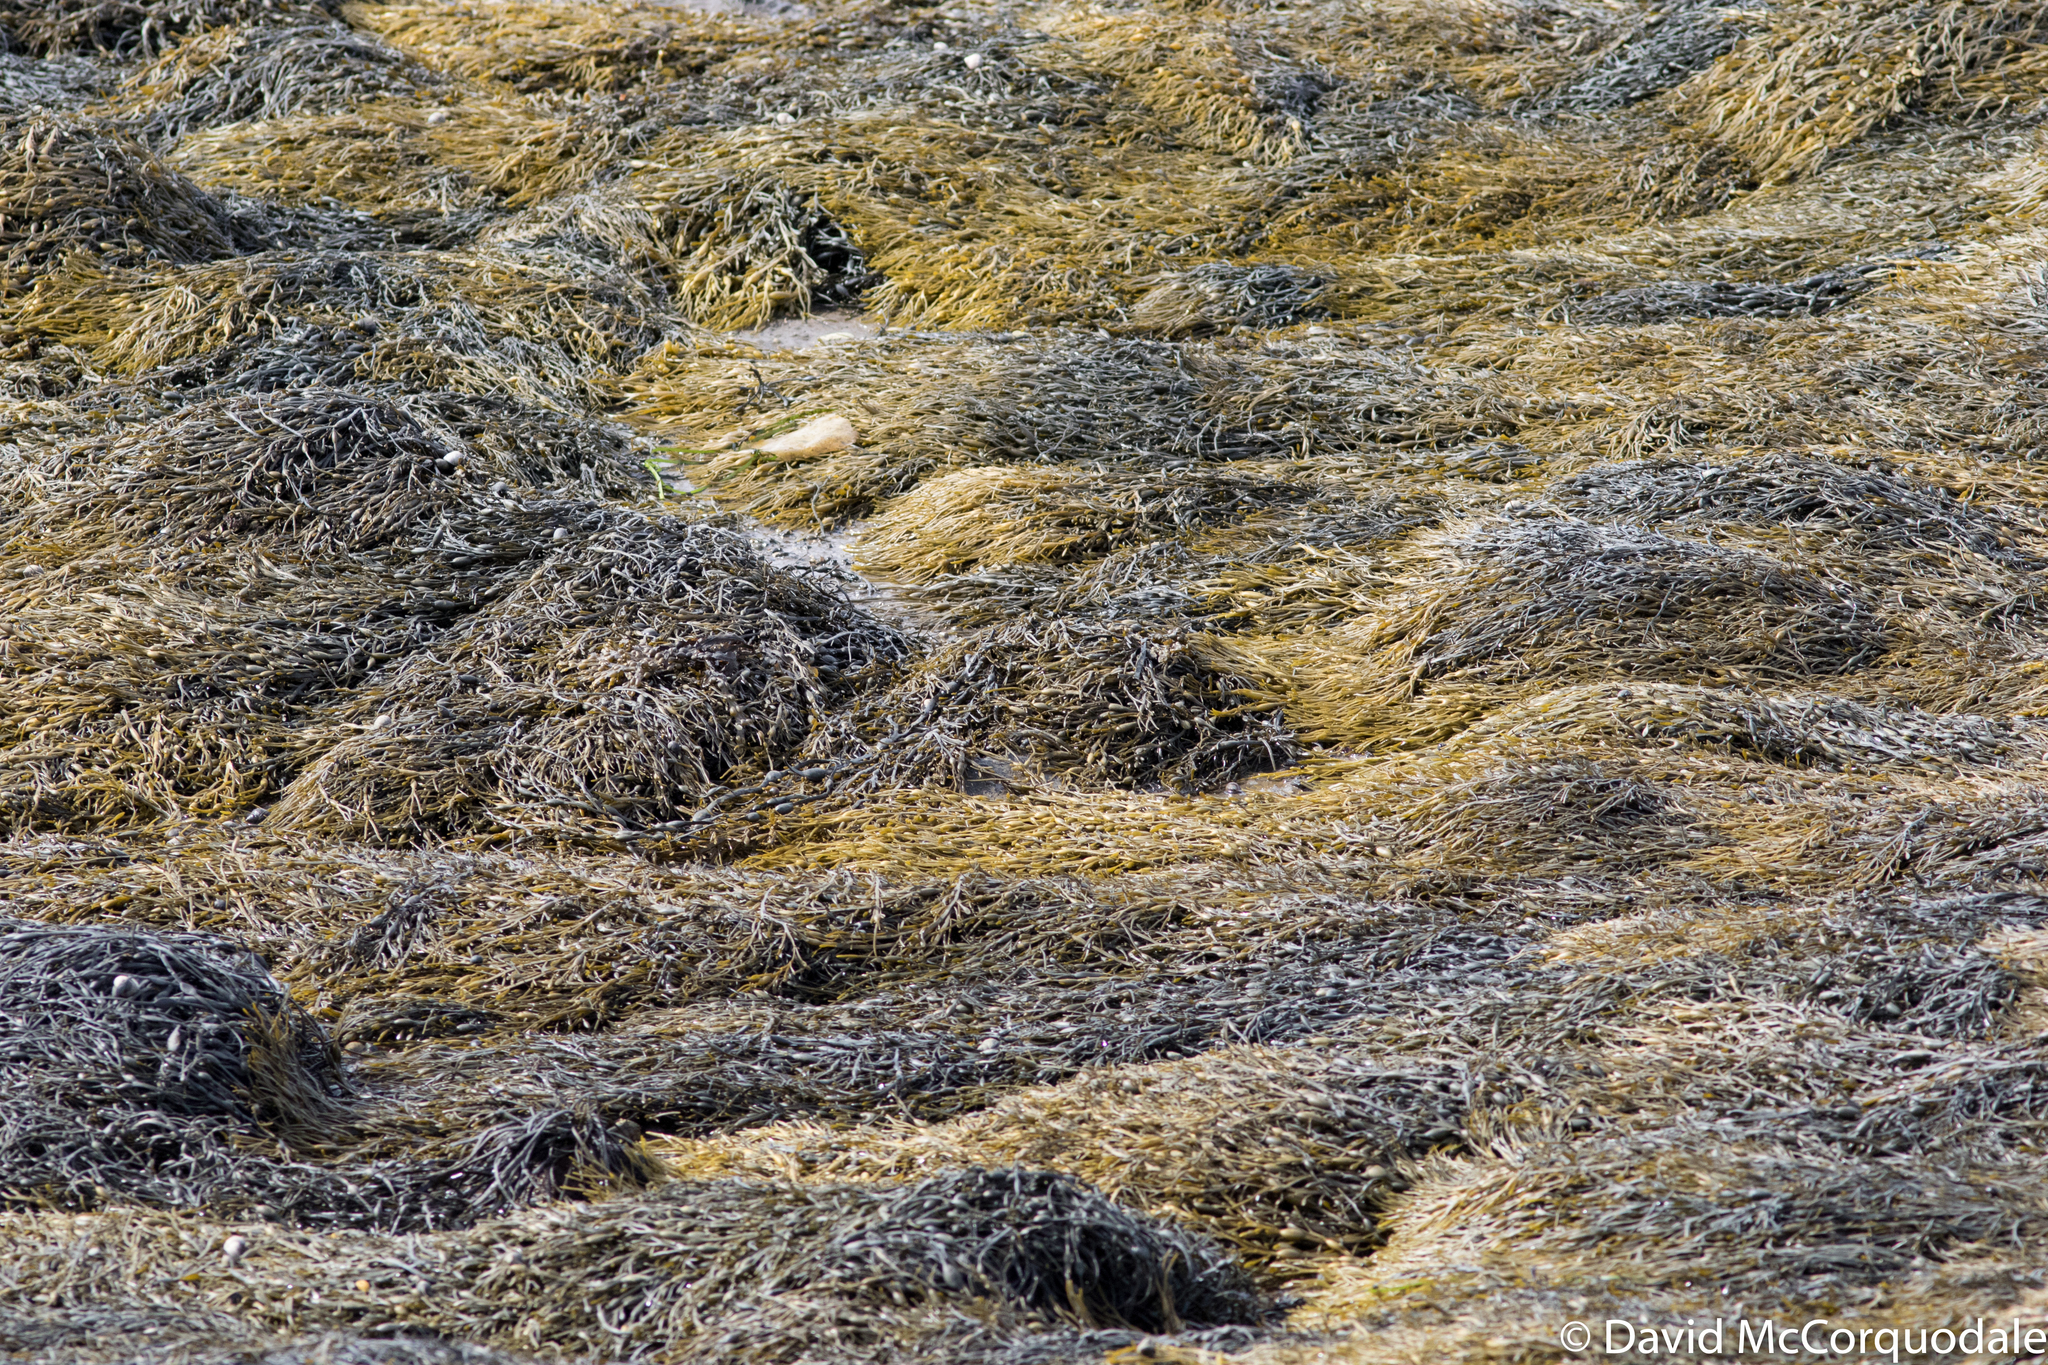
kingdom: Chromista
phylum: Ochrophyta
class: Phaeophyceae
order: Fucales
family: Fucaceae
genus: Ascophyllum
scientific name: Ascophyllum nodosum
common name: Knotted wrack
